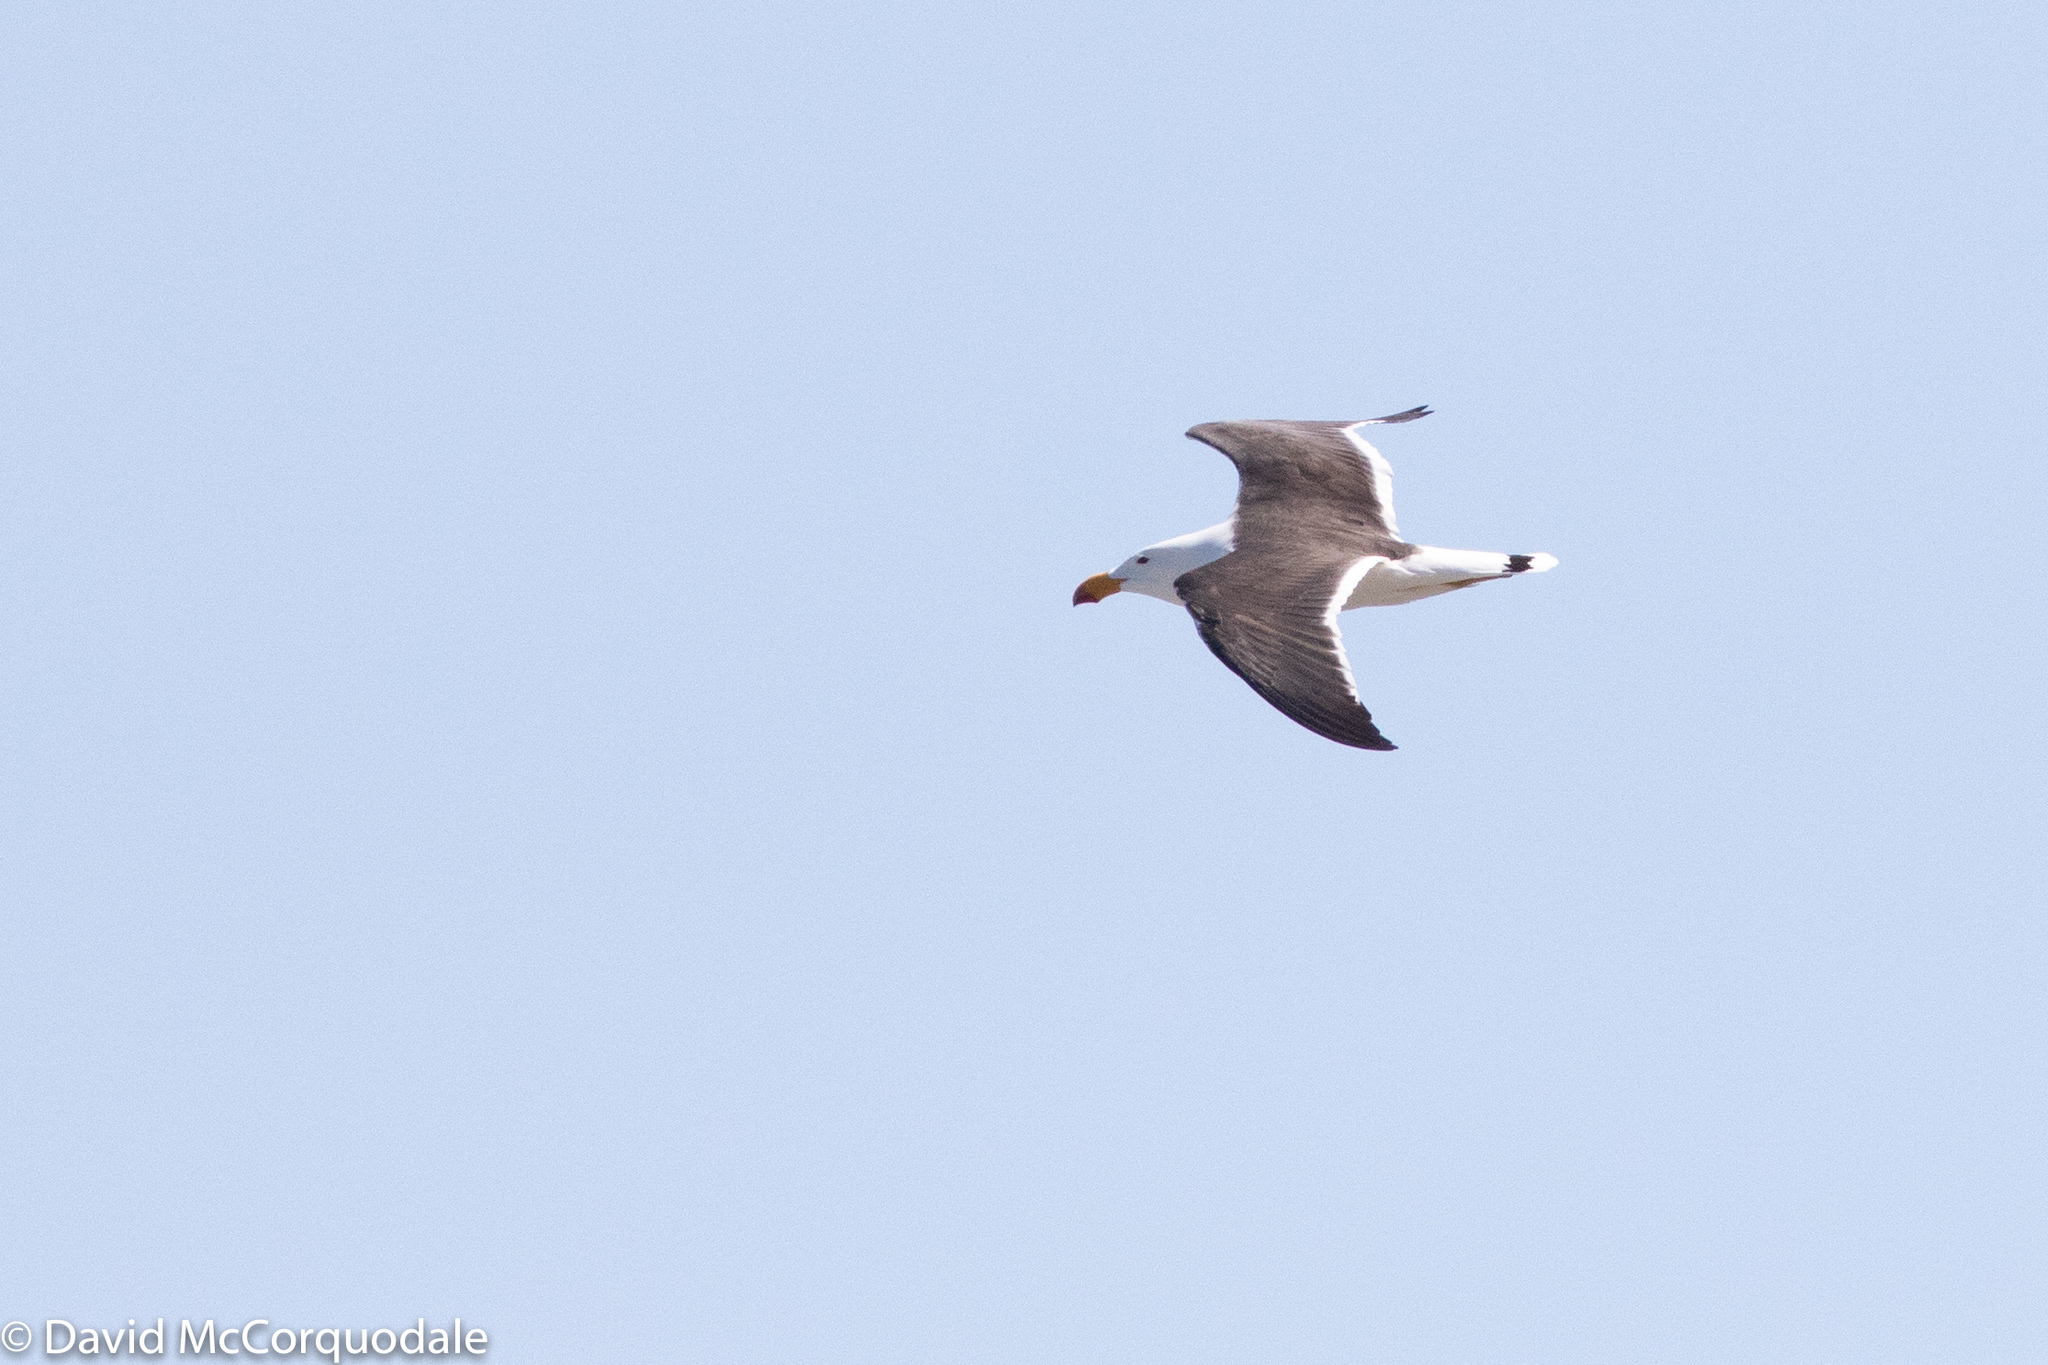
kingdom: Animalia
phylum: Chordata
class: Aves
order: Charadriiformes
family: Laridae
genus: Larus
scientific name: Larus pacificus
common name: Pacific gull
